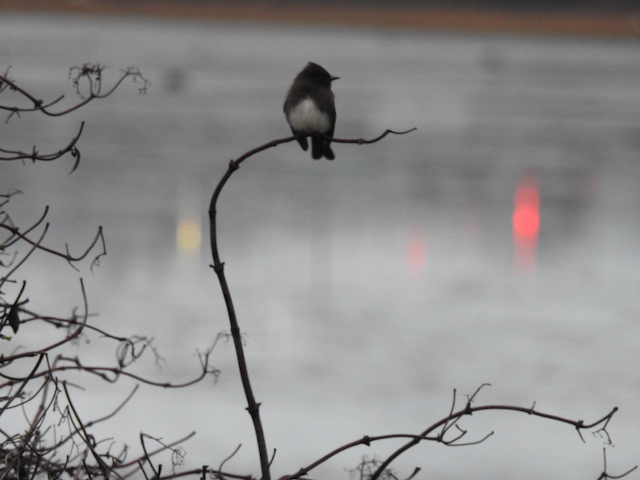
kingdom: Animalia
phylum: Chordata
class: Aves
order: Passeriformes
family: Tyrannidae
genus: Sayornis
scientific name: Sayornis nigricans
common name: Black phoebe
